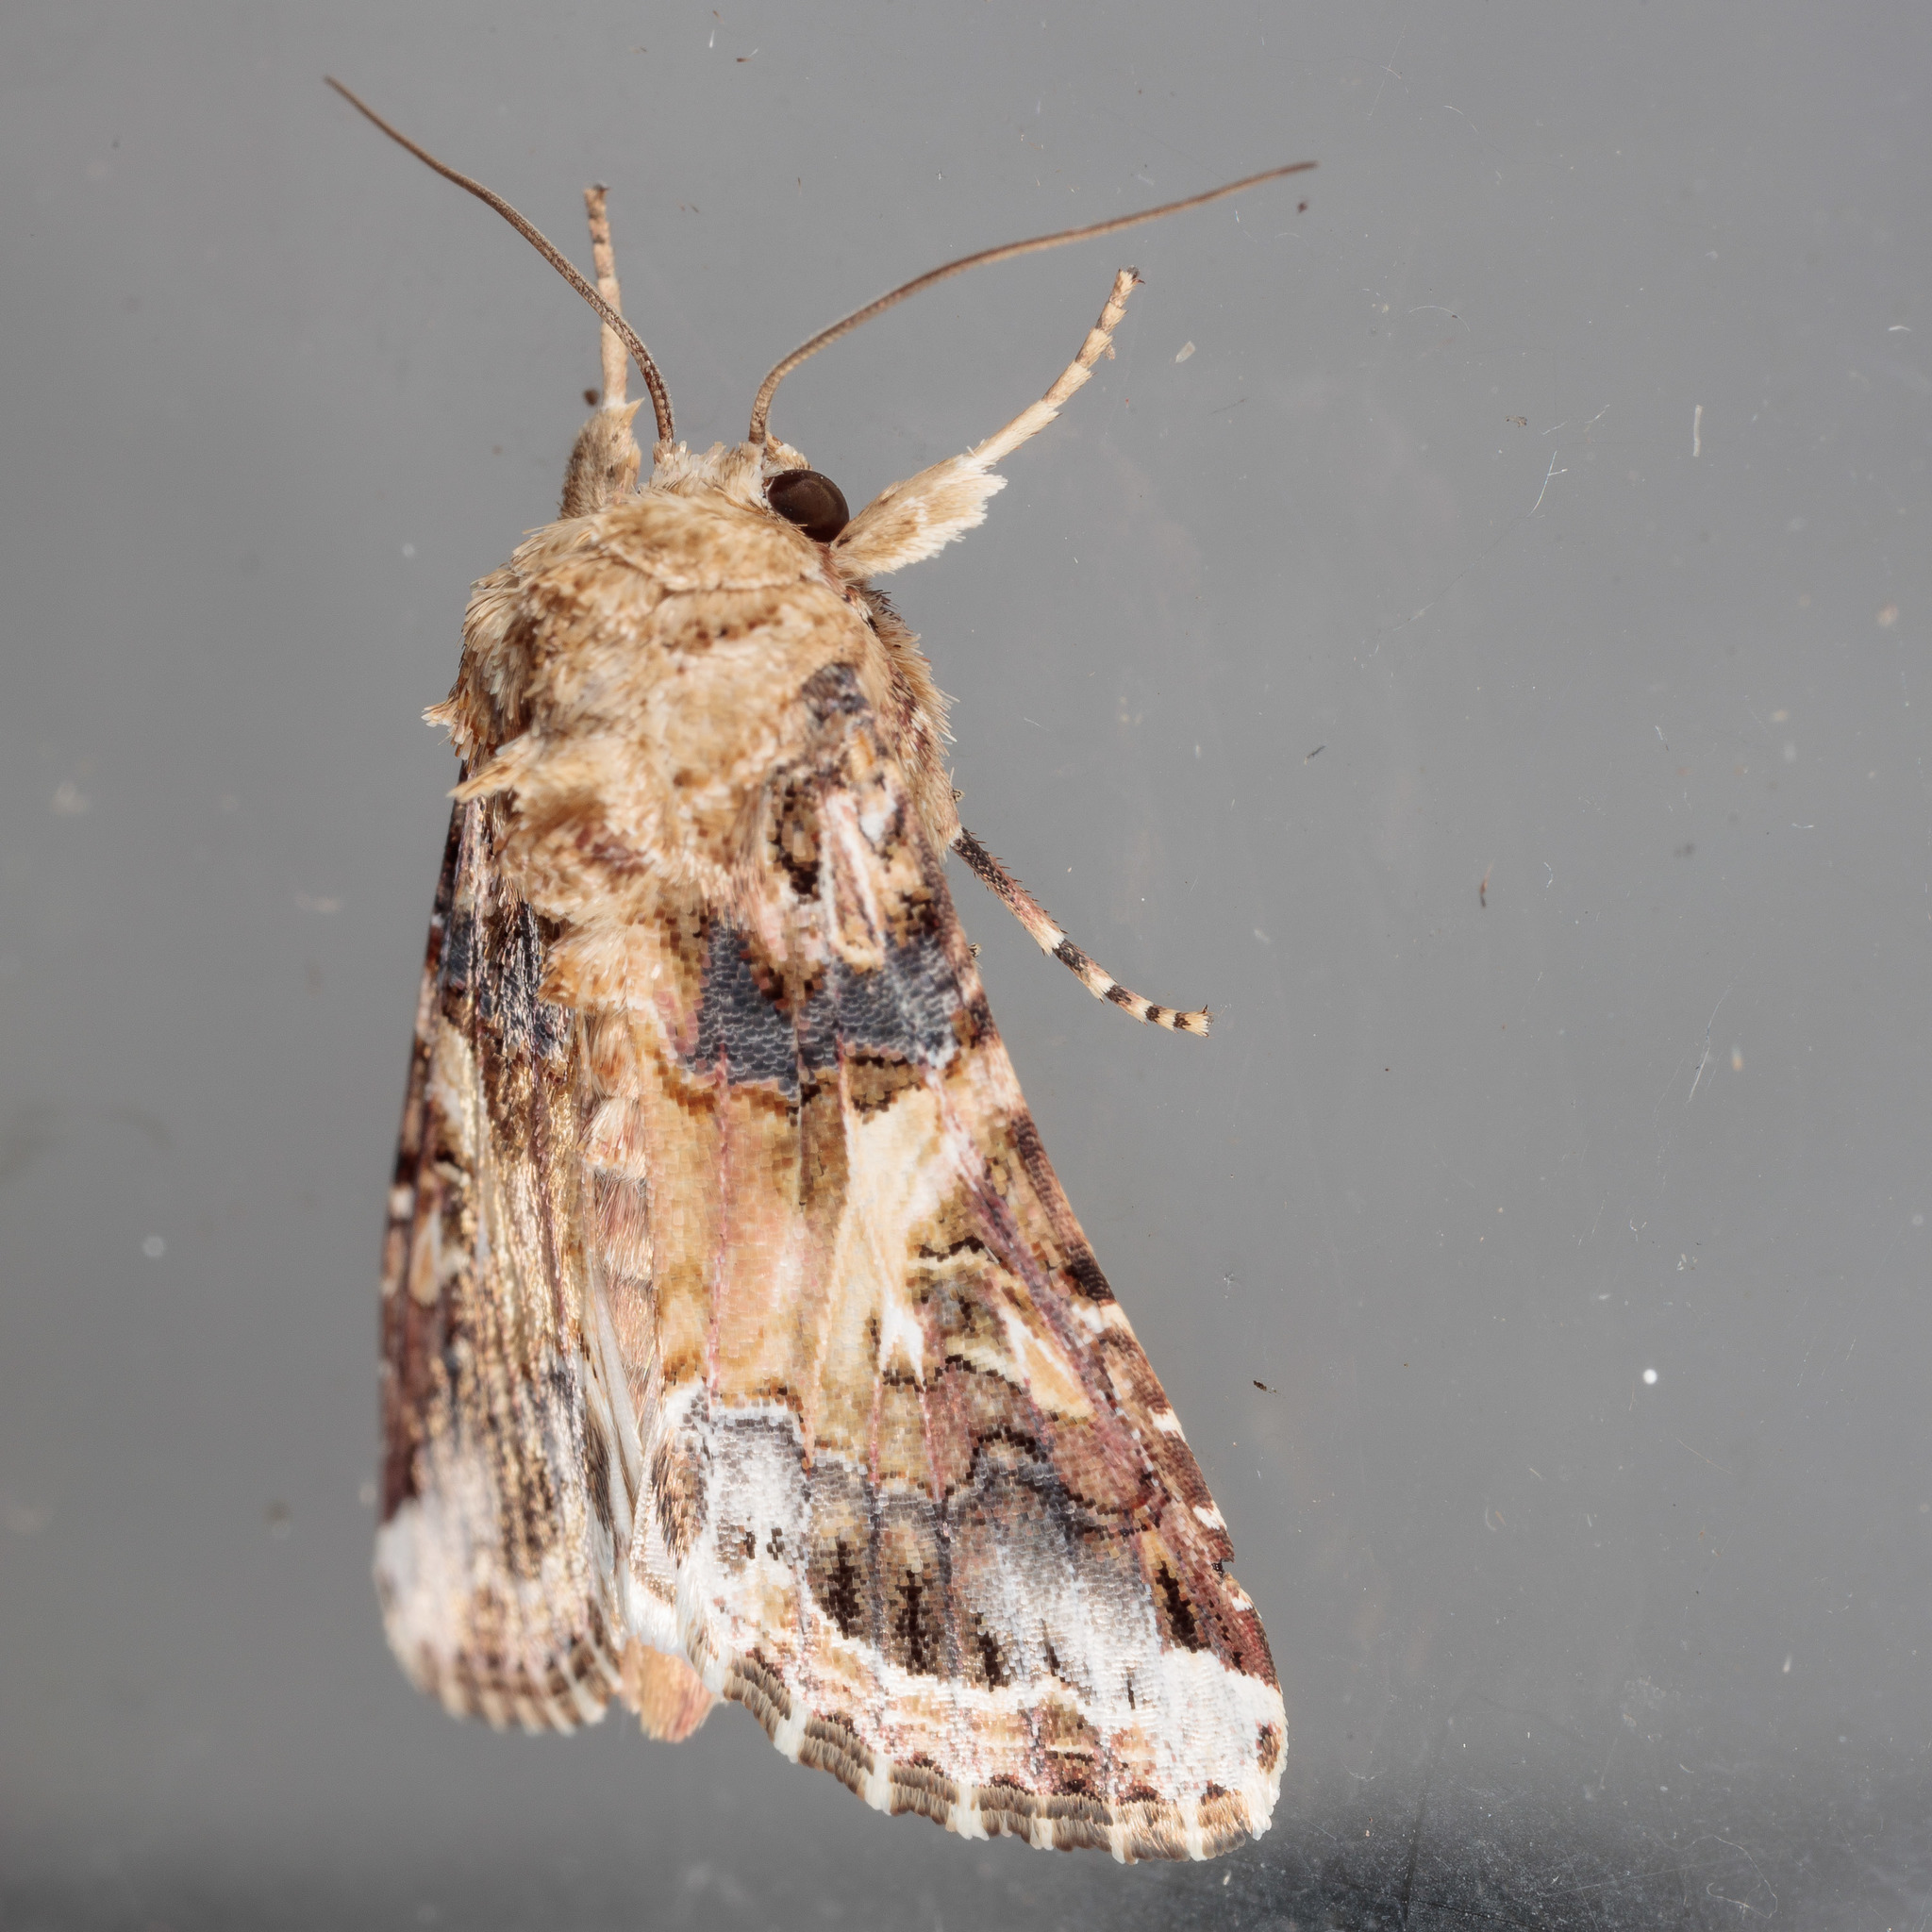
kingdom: Animalia
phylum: Arthropoda
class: Insecta
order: Lepidoptera
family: Noctuidae
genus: Spodoptera
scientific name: Spodoptera ornithogalli
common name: Yellow-striped armyworm
